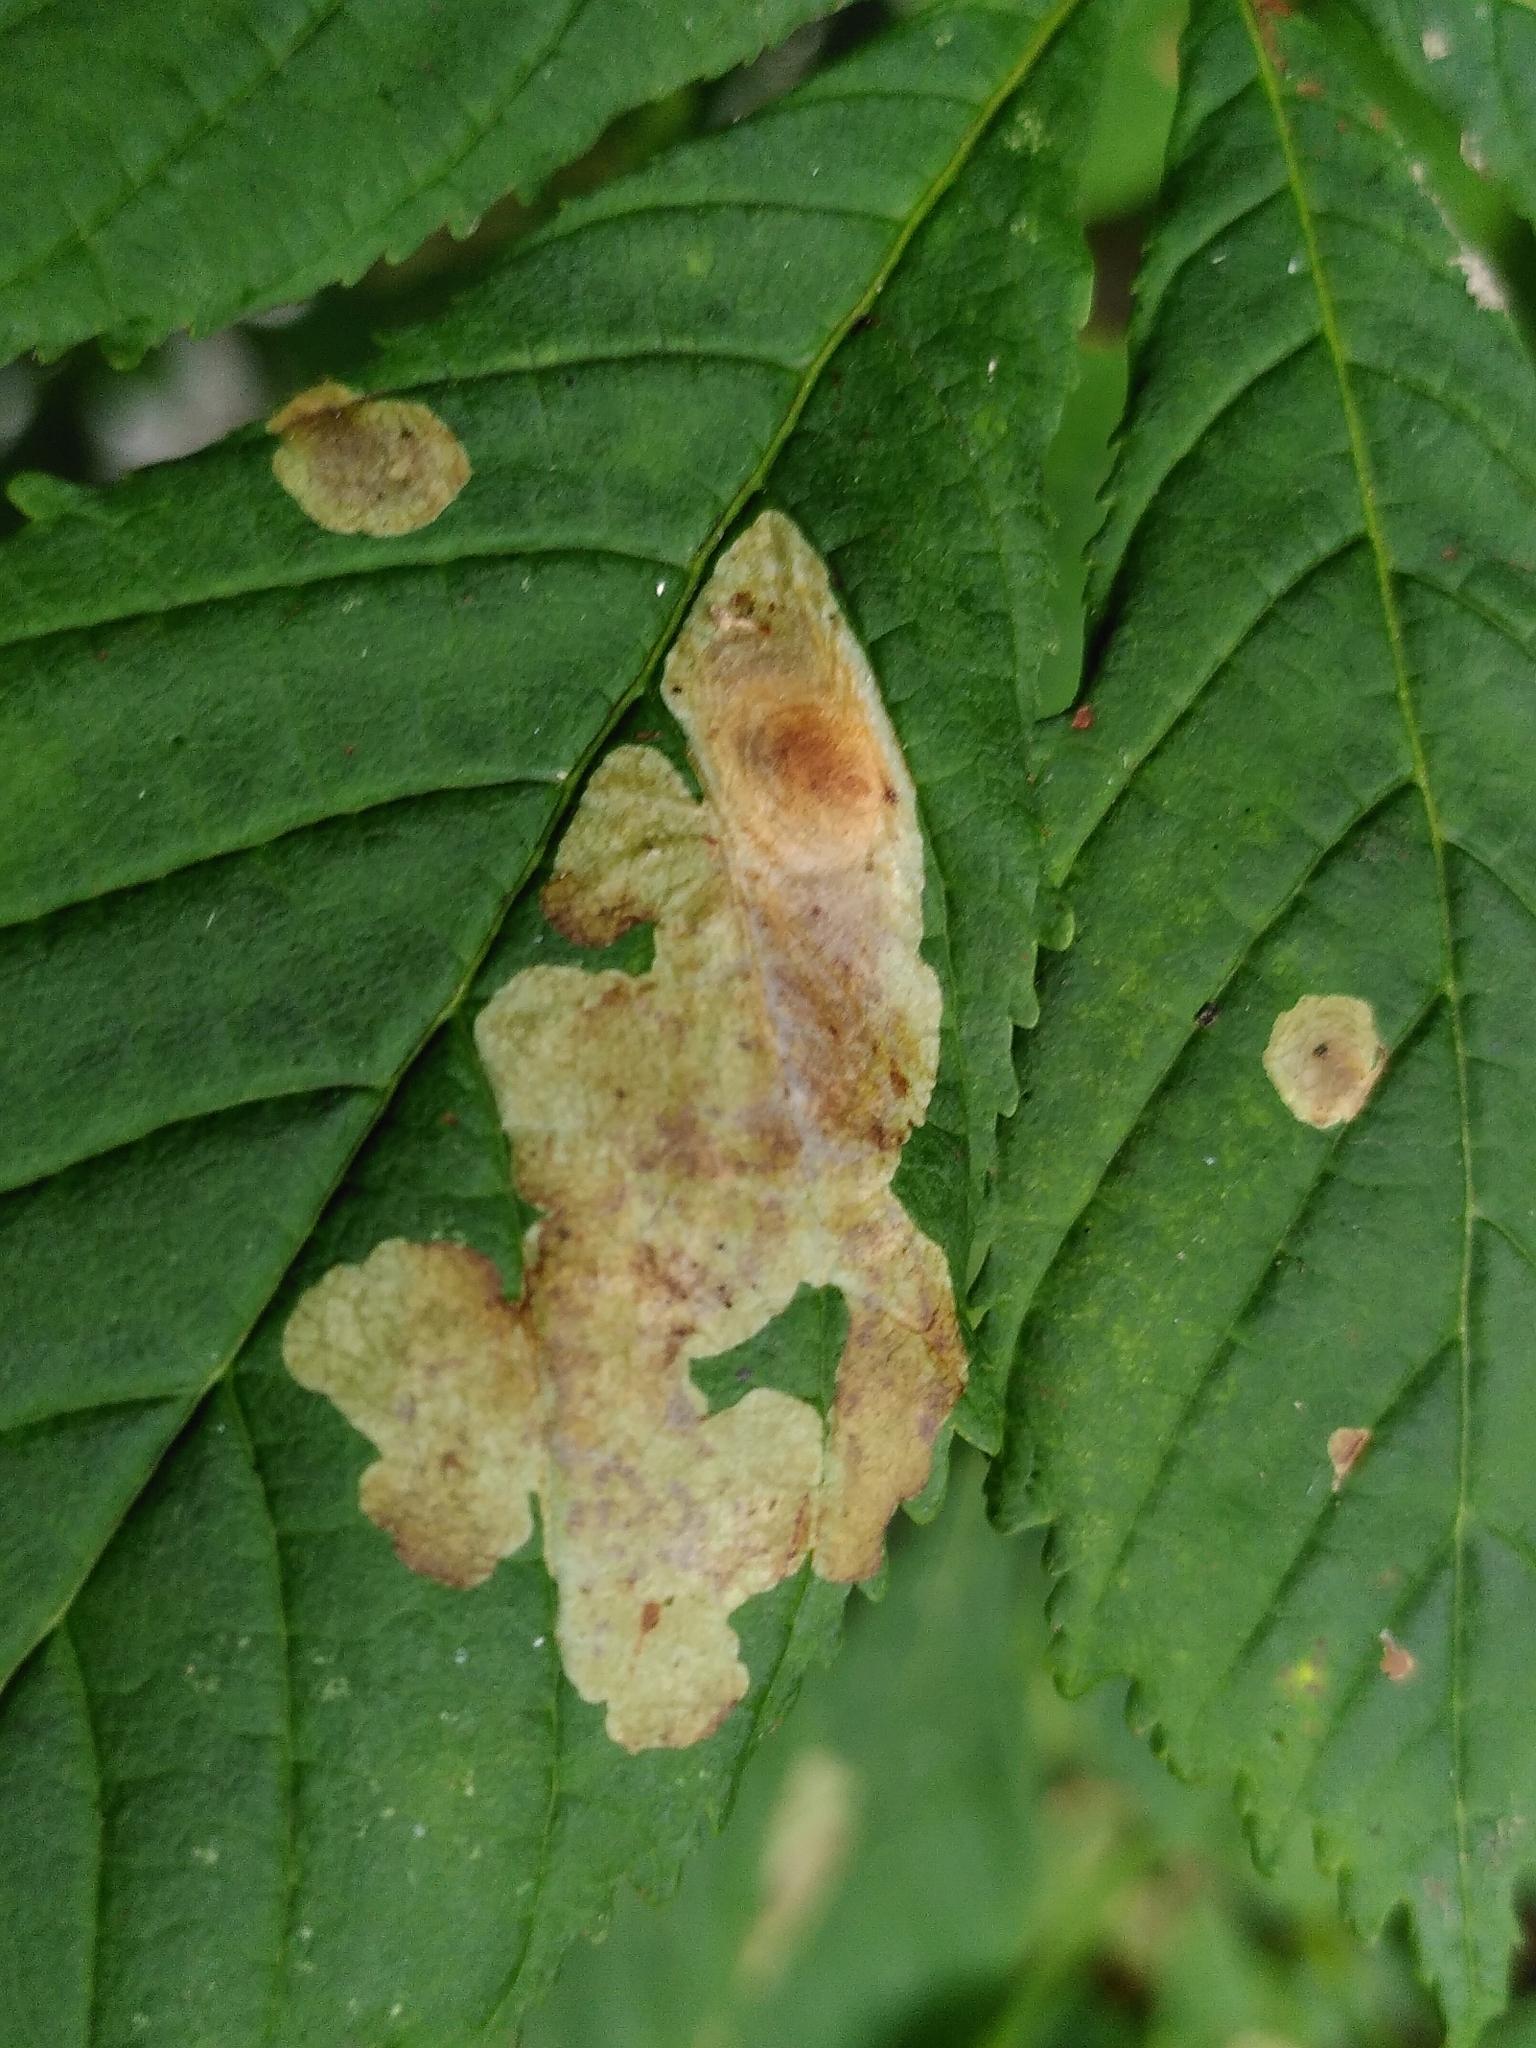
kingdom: Animalia
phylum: Arthropoda
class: Insecta
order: Lepidoptera
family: Gracillariidae
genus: Cameraria
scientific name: Cameraria ohridella
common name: Horse-chestnut leaf-miner
